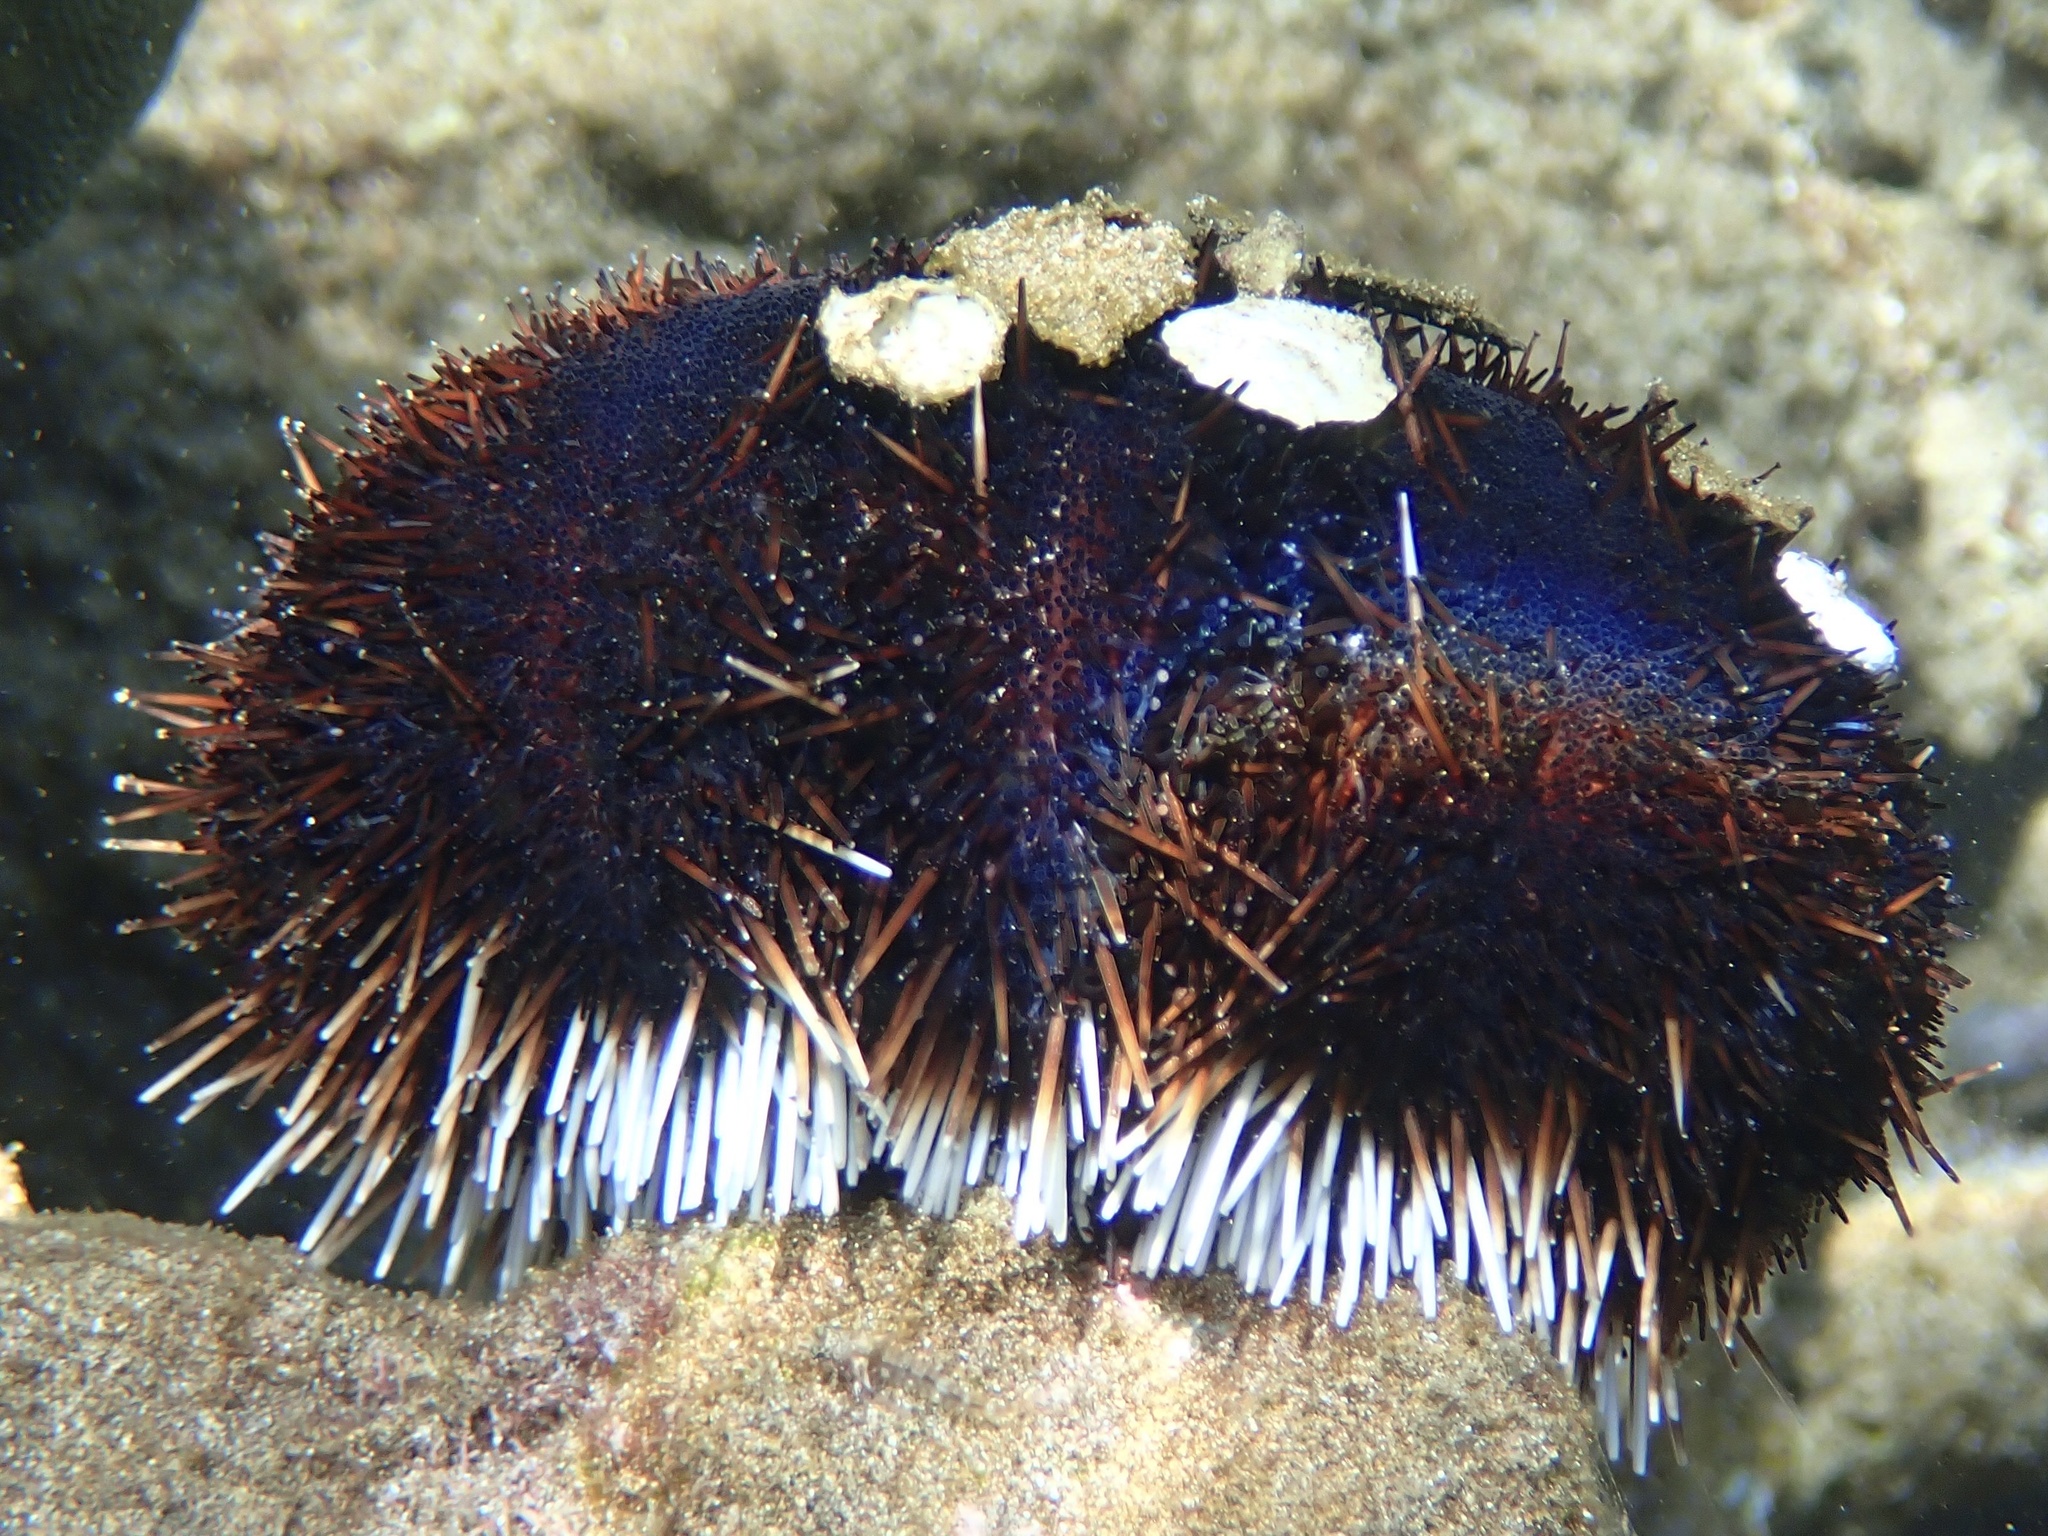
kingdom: Animalia
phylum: Echinodermata
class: Echinoidea
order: Camarodonta
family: Toxopneustidae
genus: Tripneustes
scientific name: Tripneustes gratilla
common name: Bischofsmützenseeigel
